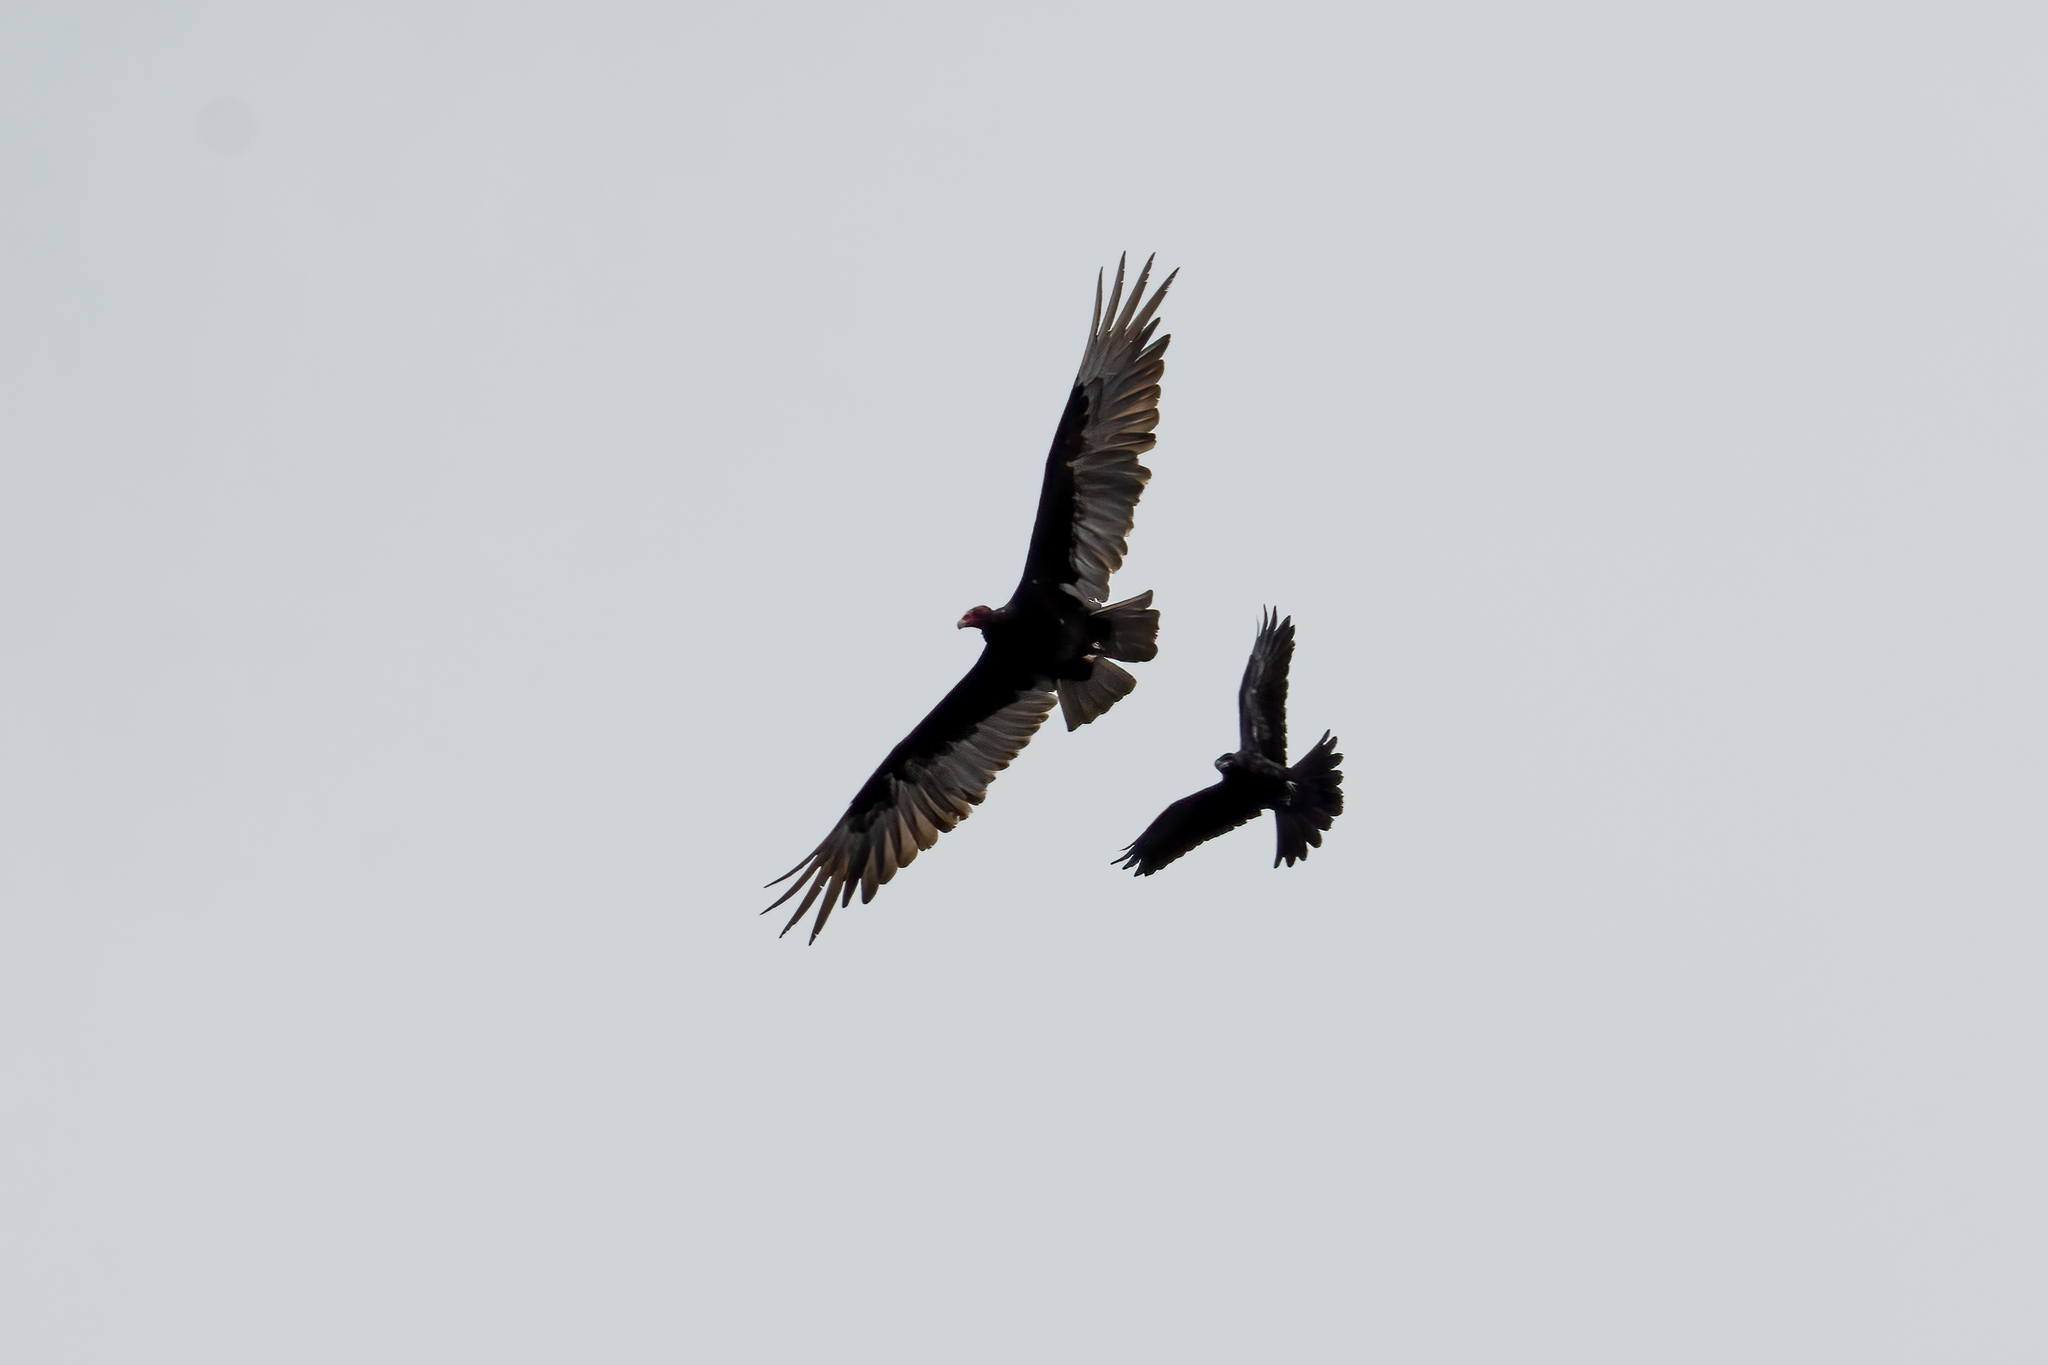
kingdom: Animalia
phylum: Chordata
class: Aves
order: Accipitriformes
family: Cathartidae
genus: Cathartes
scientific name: Cathartes aura
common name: Turkey vulture
